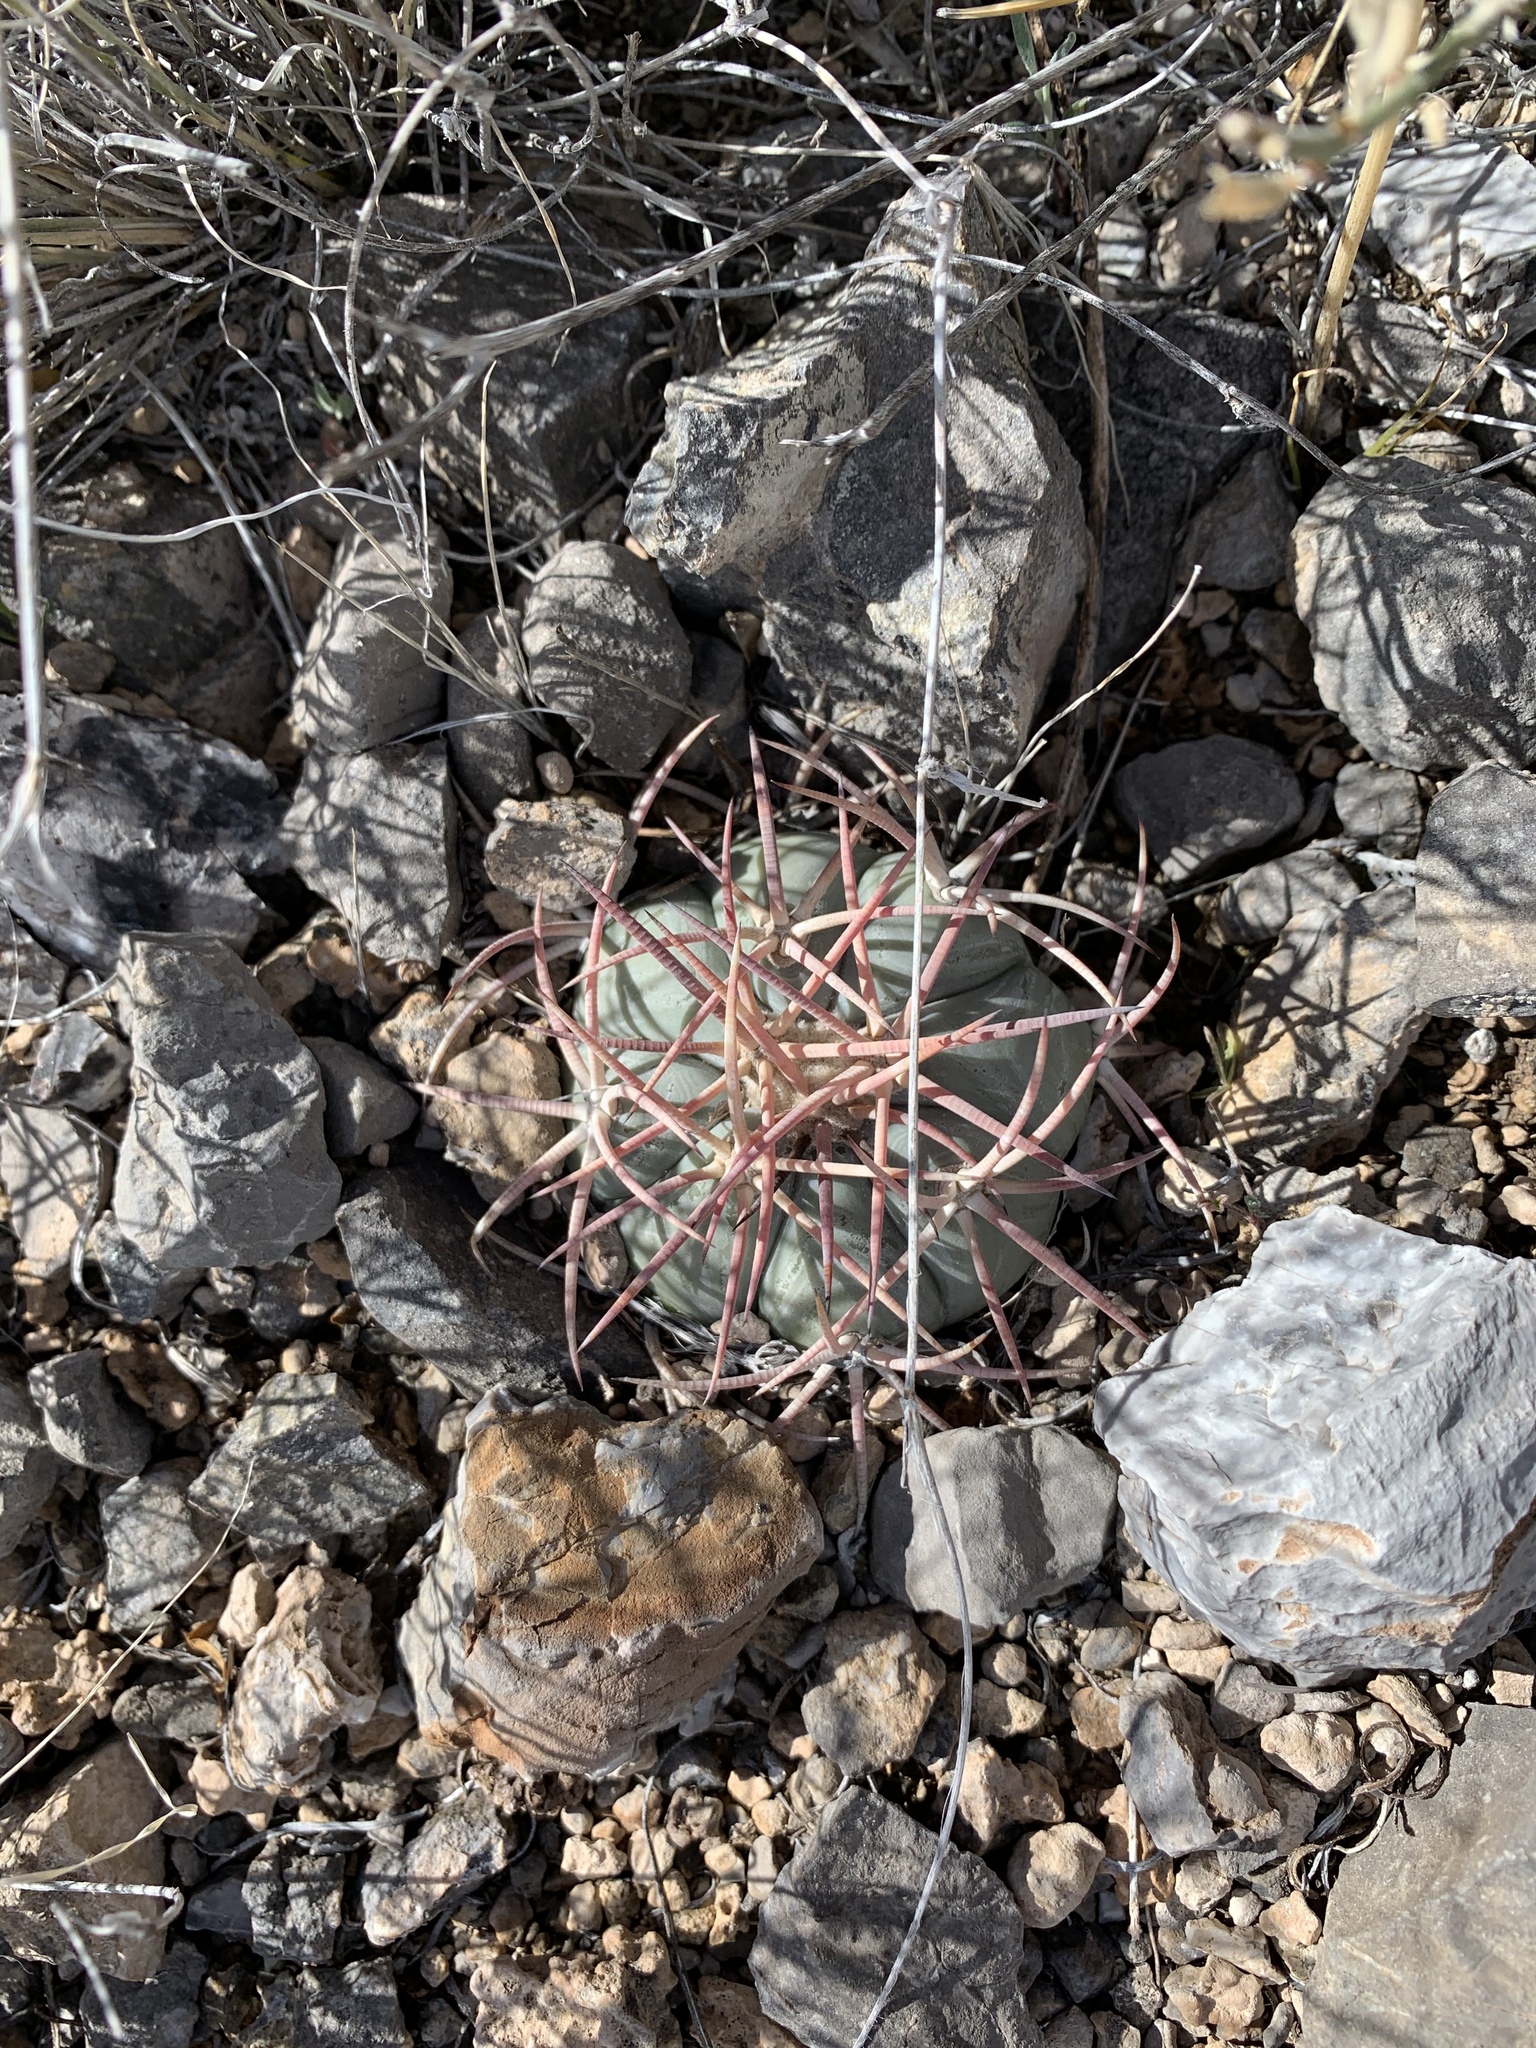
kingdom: Plantae
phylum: Tracheophyta
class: Magnoliopsida
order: Caryophyllales
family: Cactaceae
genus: Echinocactus
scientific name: Echinocactus horizonthalonius
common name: Devilshead
